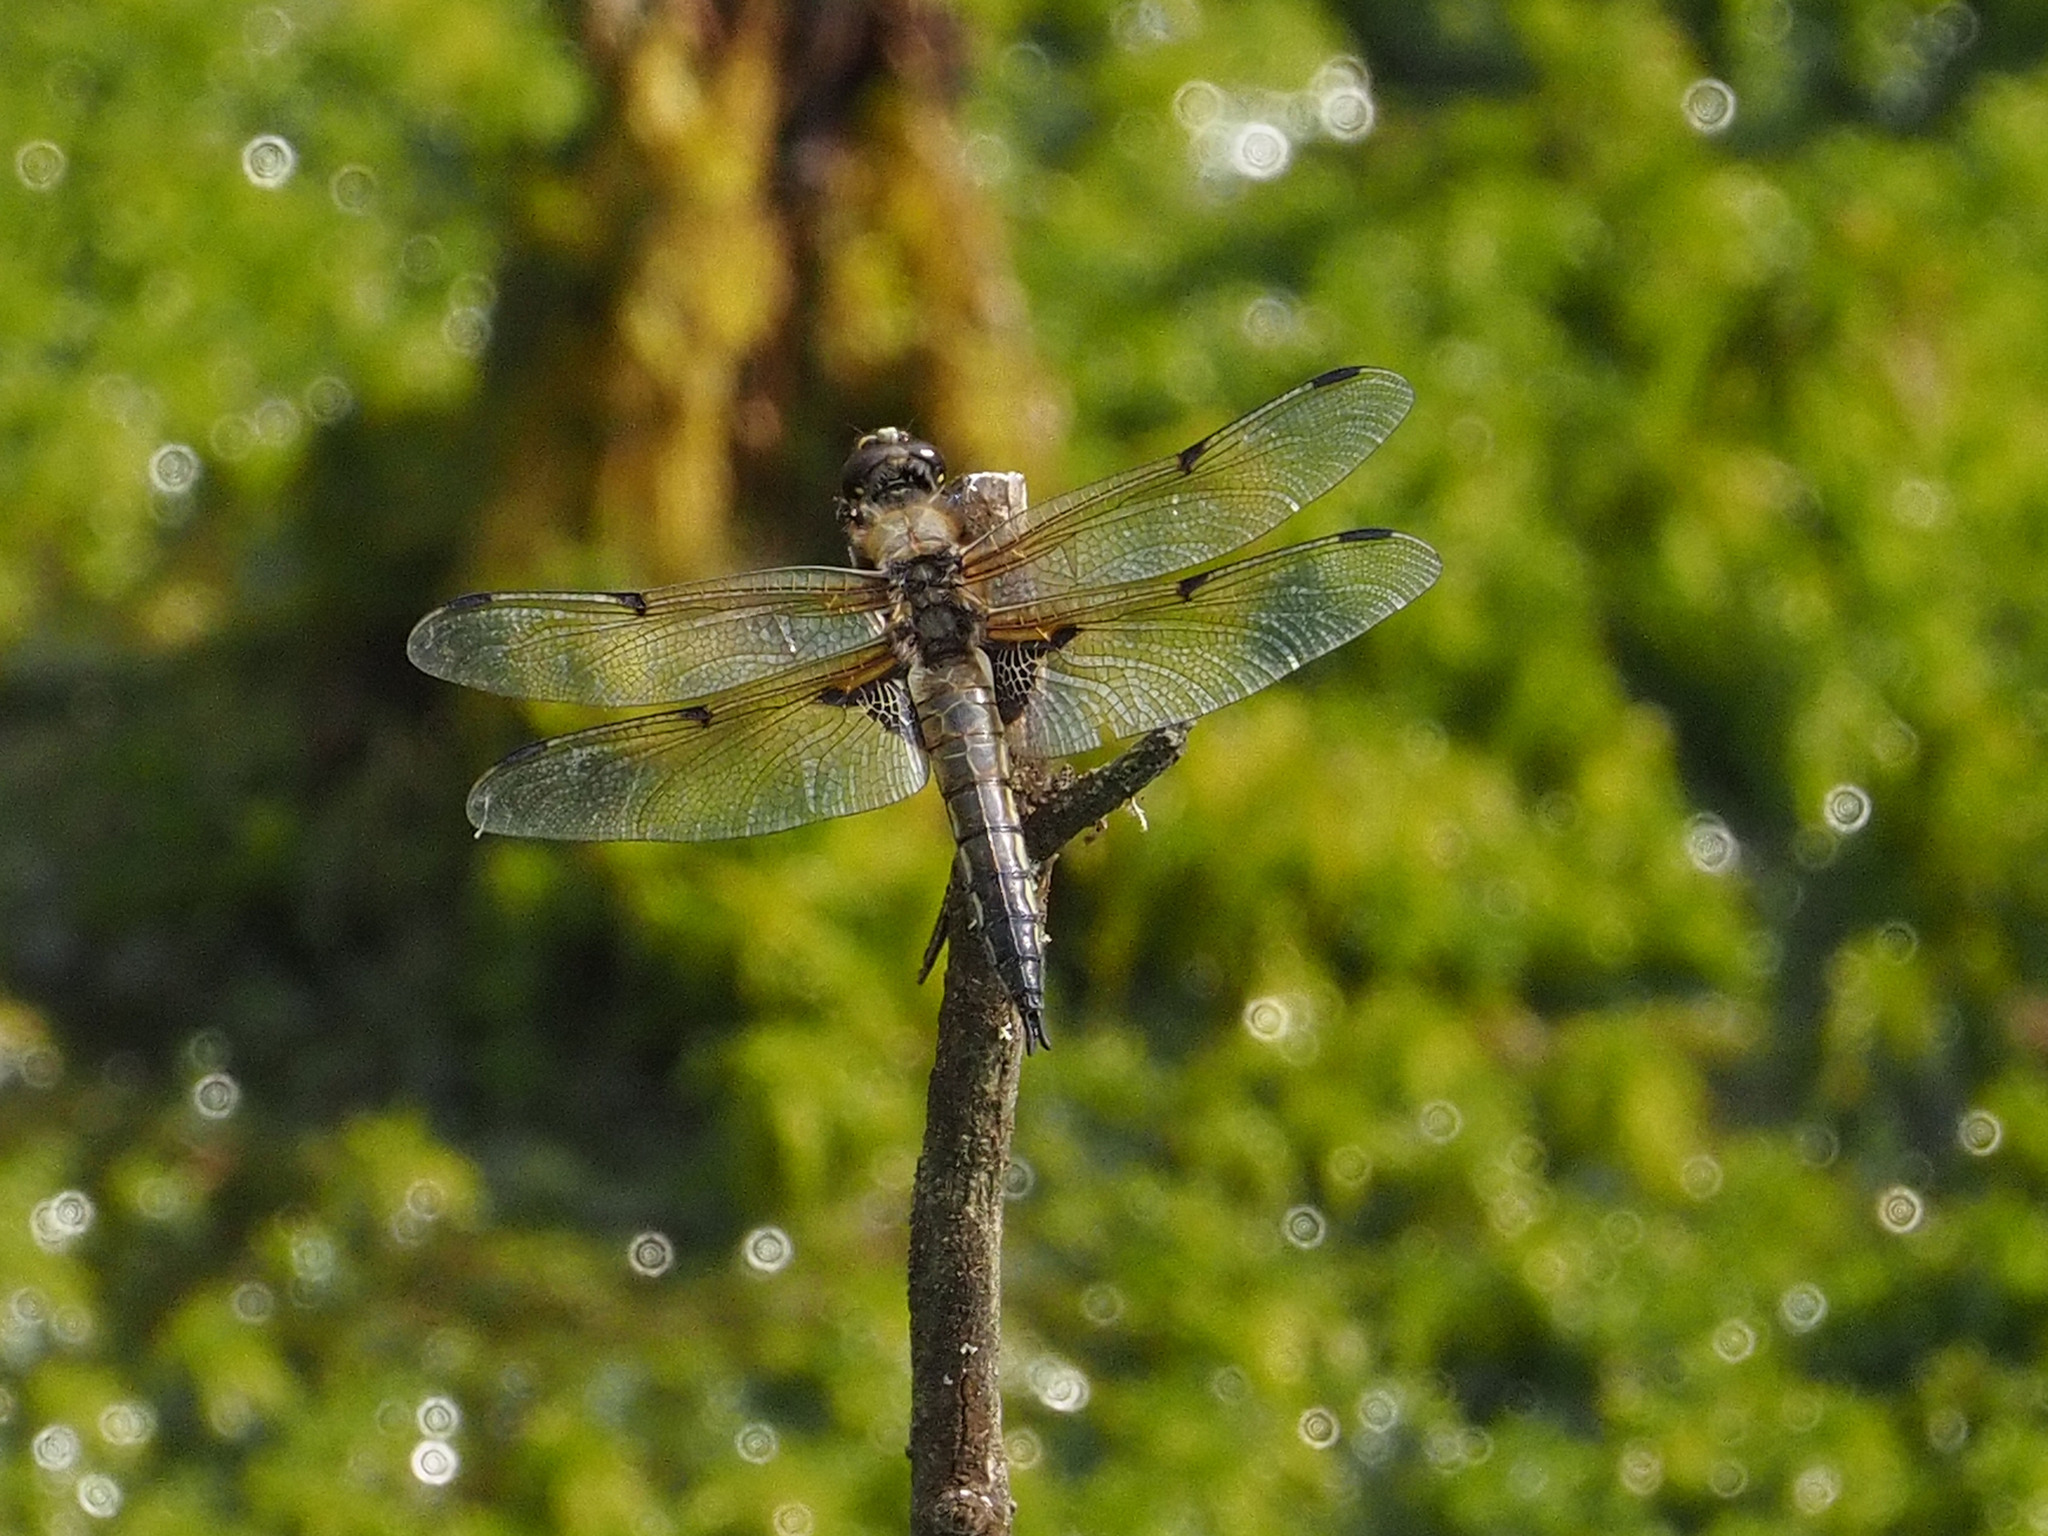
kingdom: Animalia
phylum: Arthropoda
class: Insecta
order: Odonata
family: Libellulidae
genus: Libellula
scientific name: Libellula quadrimaculata
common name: Four-spotted chaser
